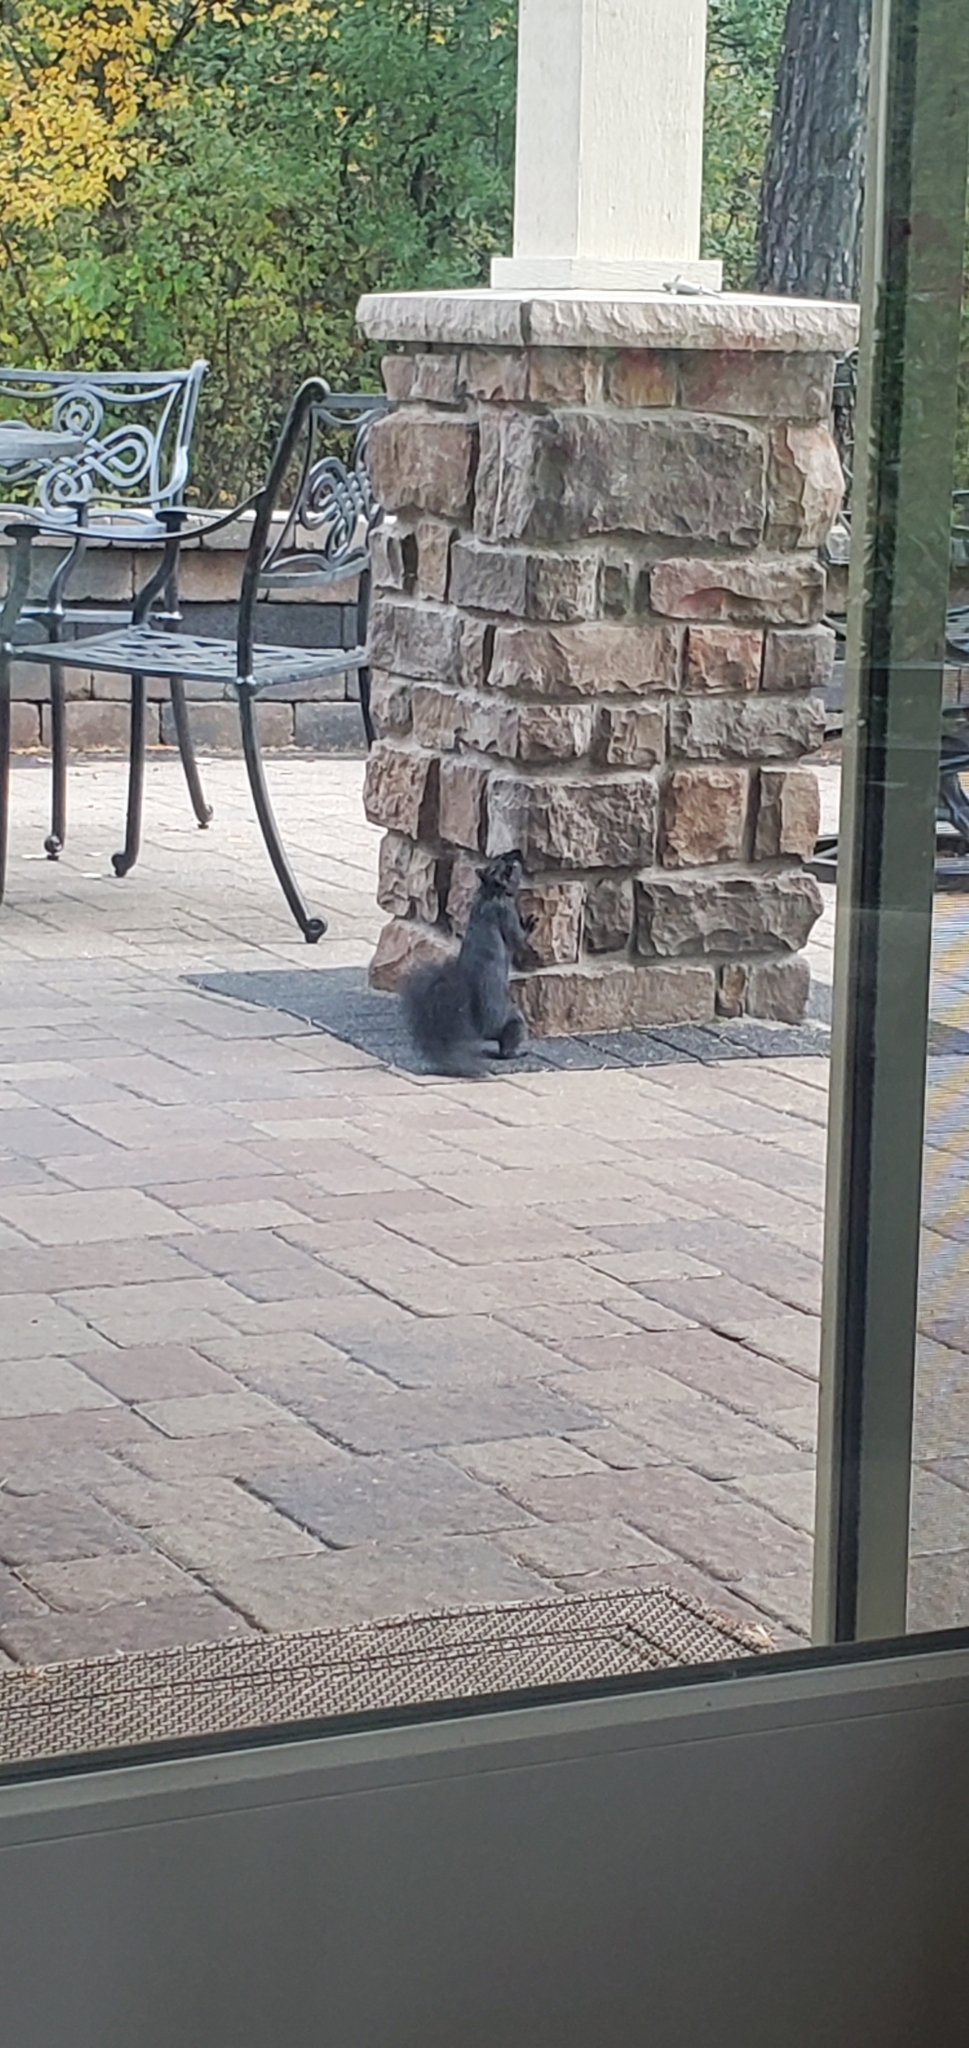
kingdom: Animalia
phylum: Chordata
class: Mammalia
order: Rodentia
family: Sciuridae
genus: Sciurus
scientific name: Sciurus carolinensis
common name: Eastern gray squirrel
